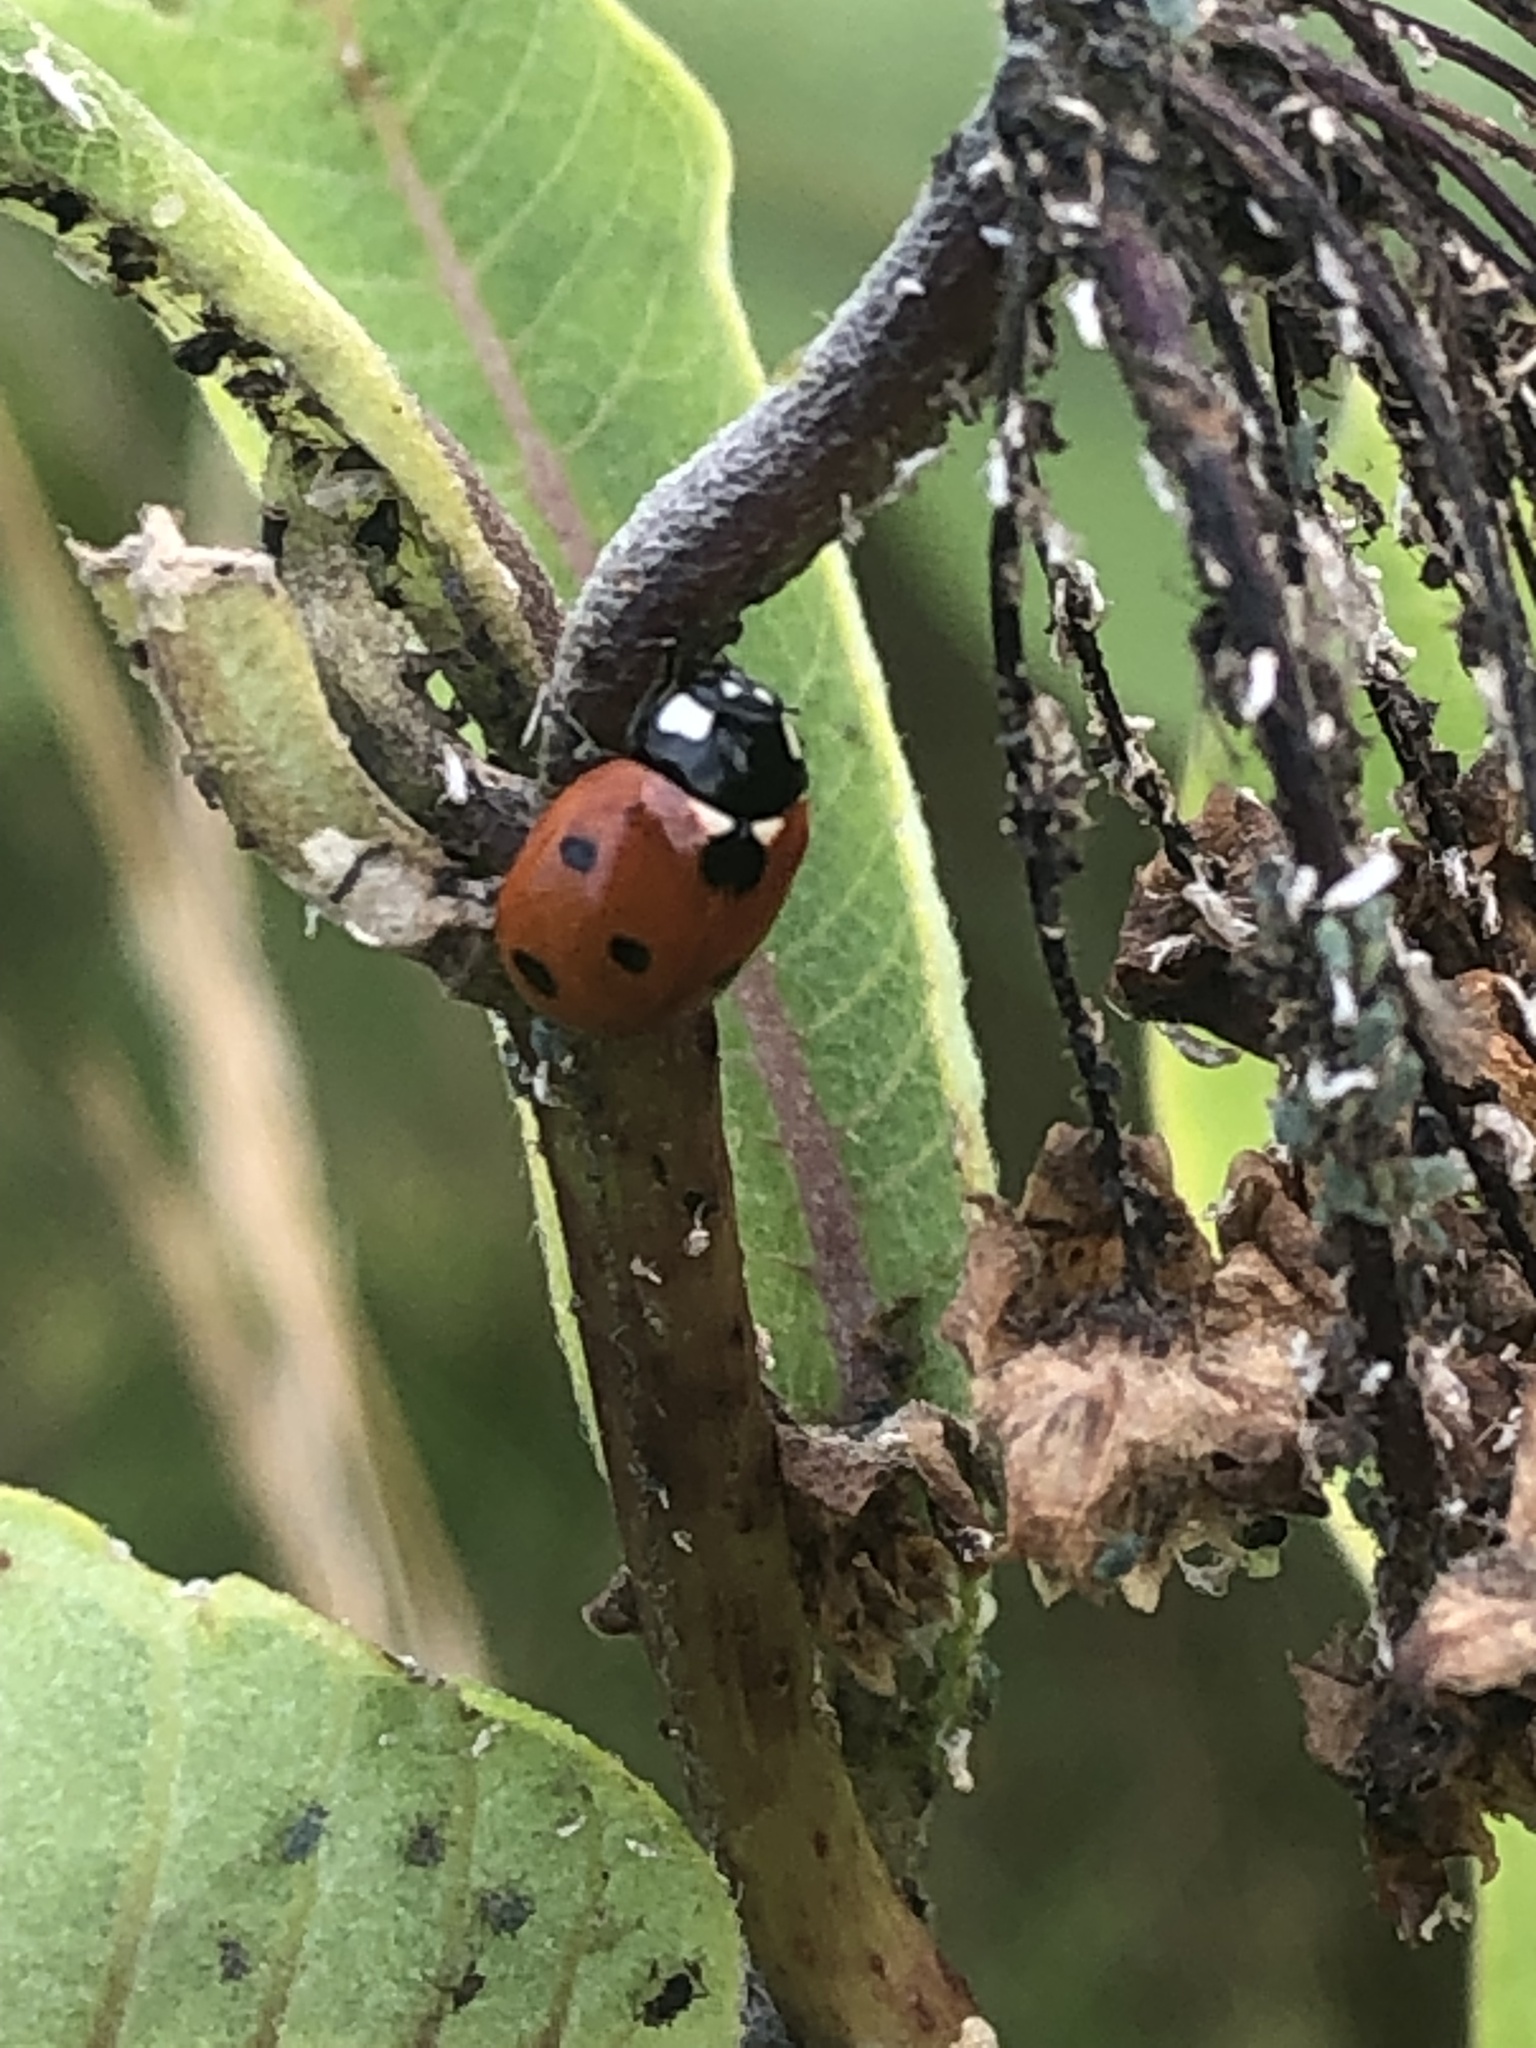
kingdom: Animalia
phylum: Arthropoda
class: Insecta
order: Coleoptera
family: Coccinellidae
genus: Coccinella
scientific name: Coccinella septempunctata
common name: Sevenspotted lady beetle
